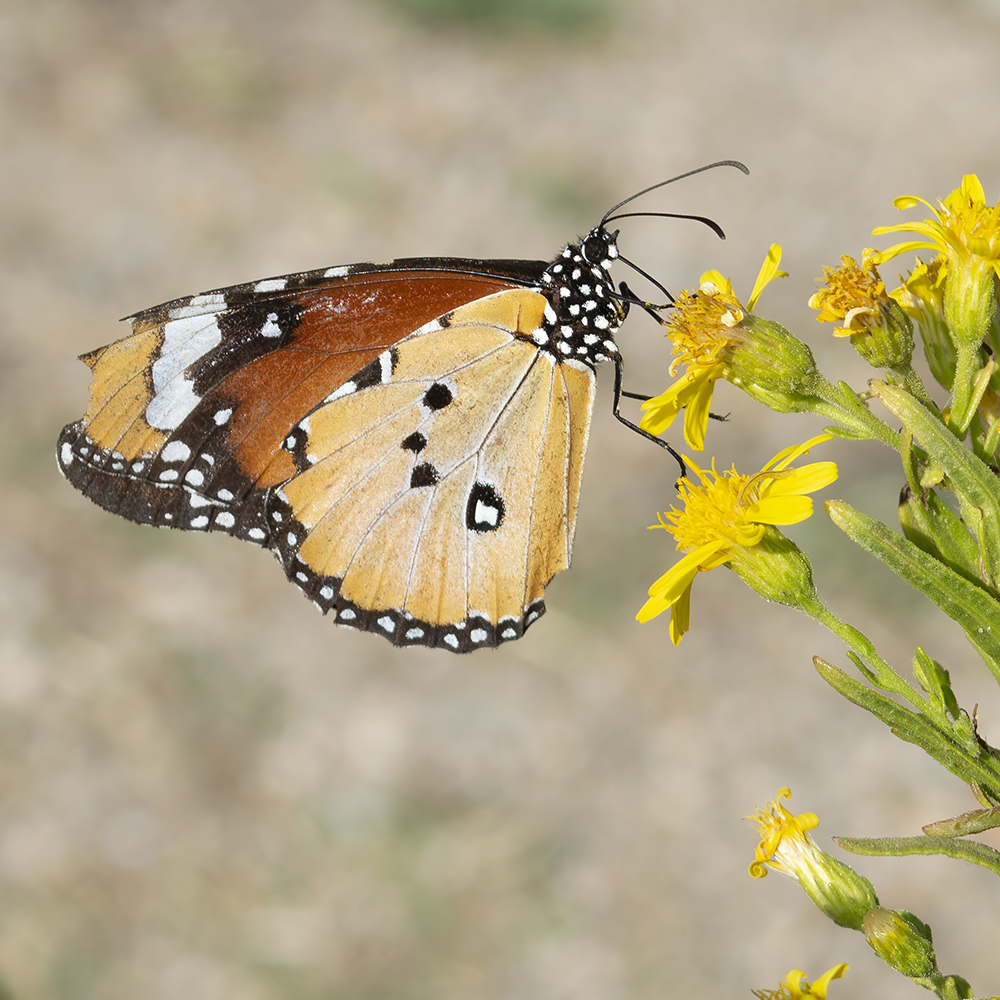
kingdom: Animalia
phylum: Arthropoda
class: Insecta
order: Lepidoptera
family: Nymphalidae
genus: Danaus
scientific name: Danaus chrysippus
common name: Plain tiger
